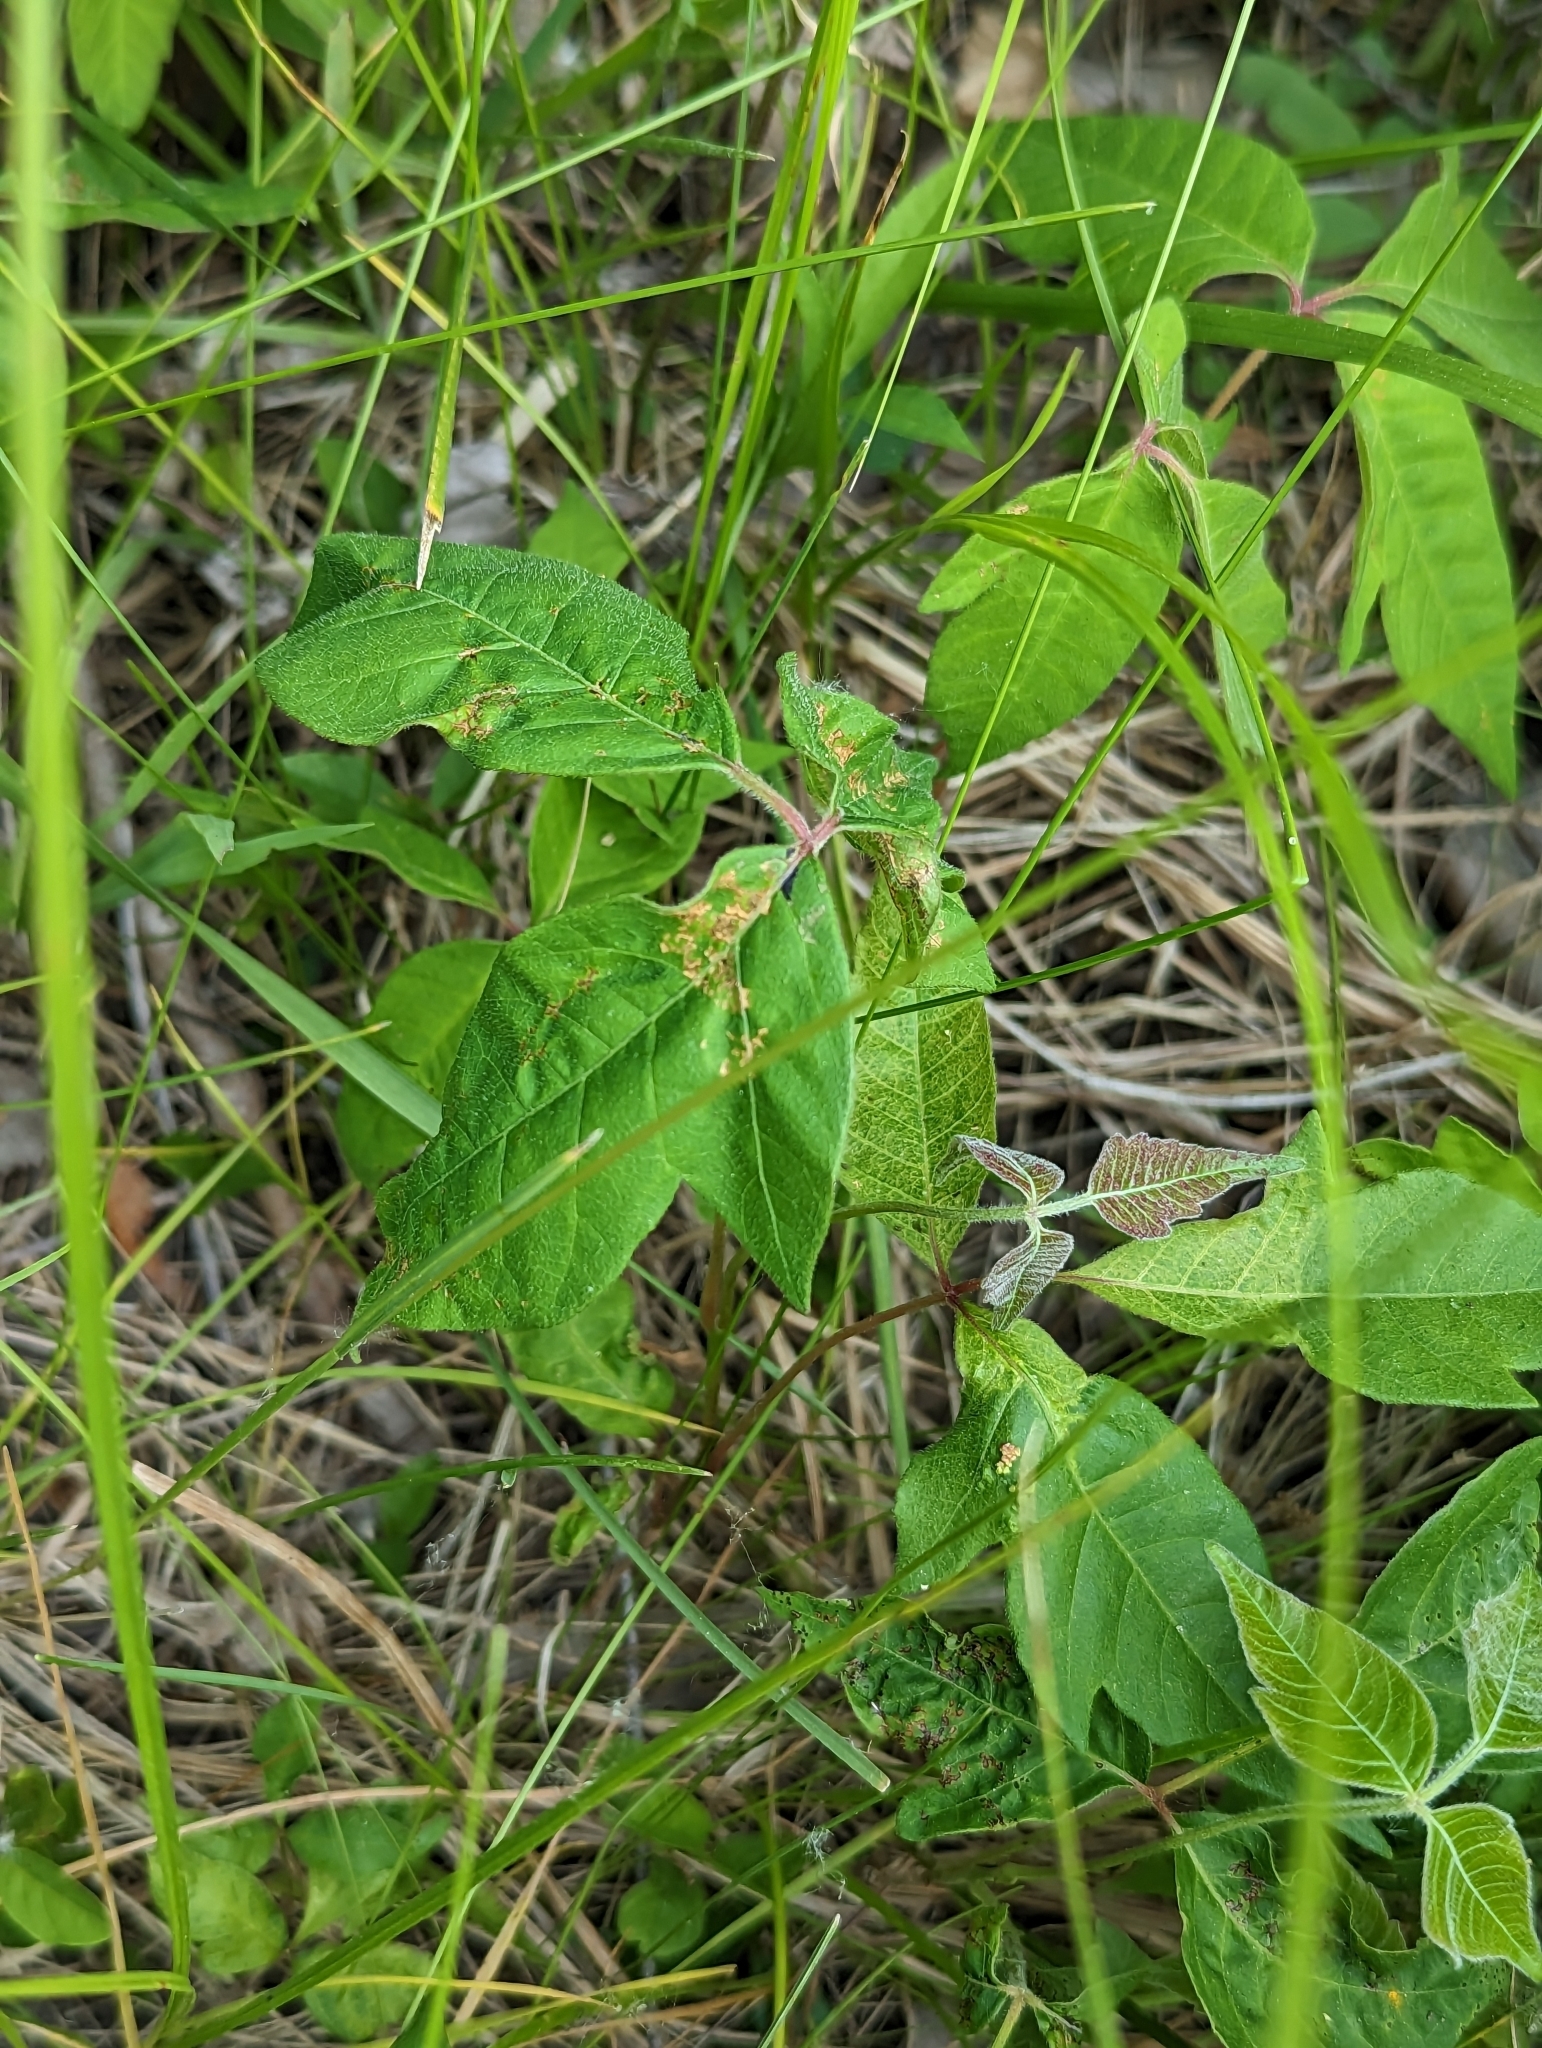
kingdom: Plantae
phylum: Tracheophyta
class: Magnoliopsida
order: Sapindales
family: Anacardiaceae
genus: Toxicodendron
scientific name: Toxicodendron radicans
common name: Poison ivy
